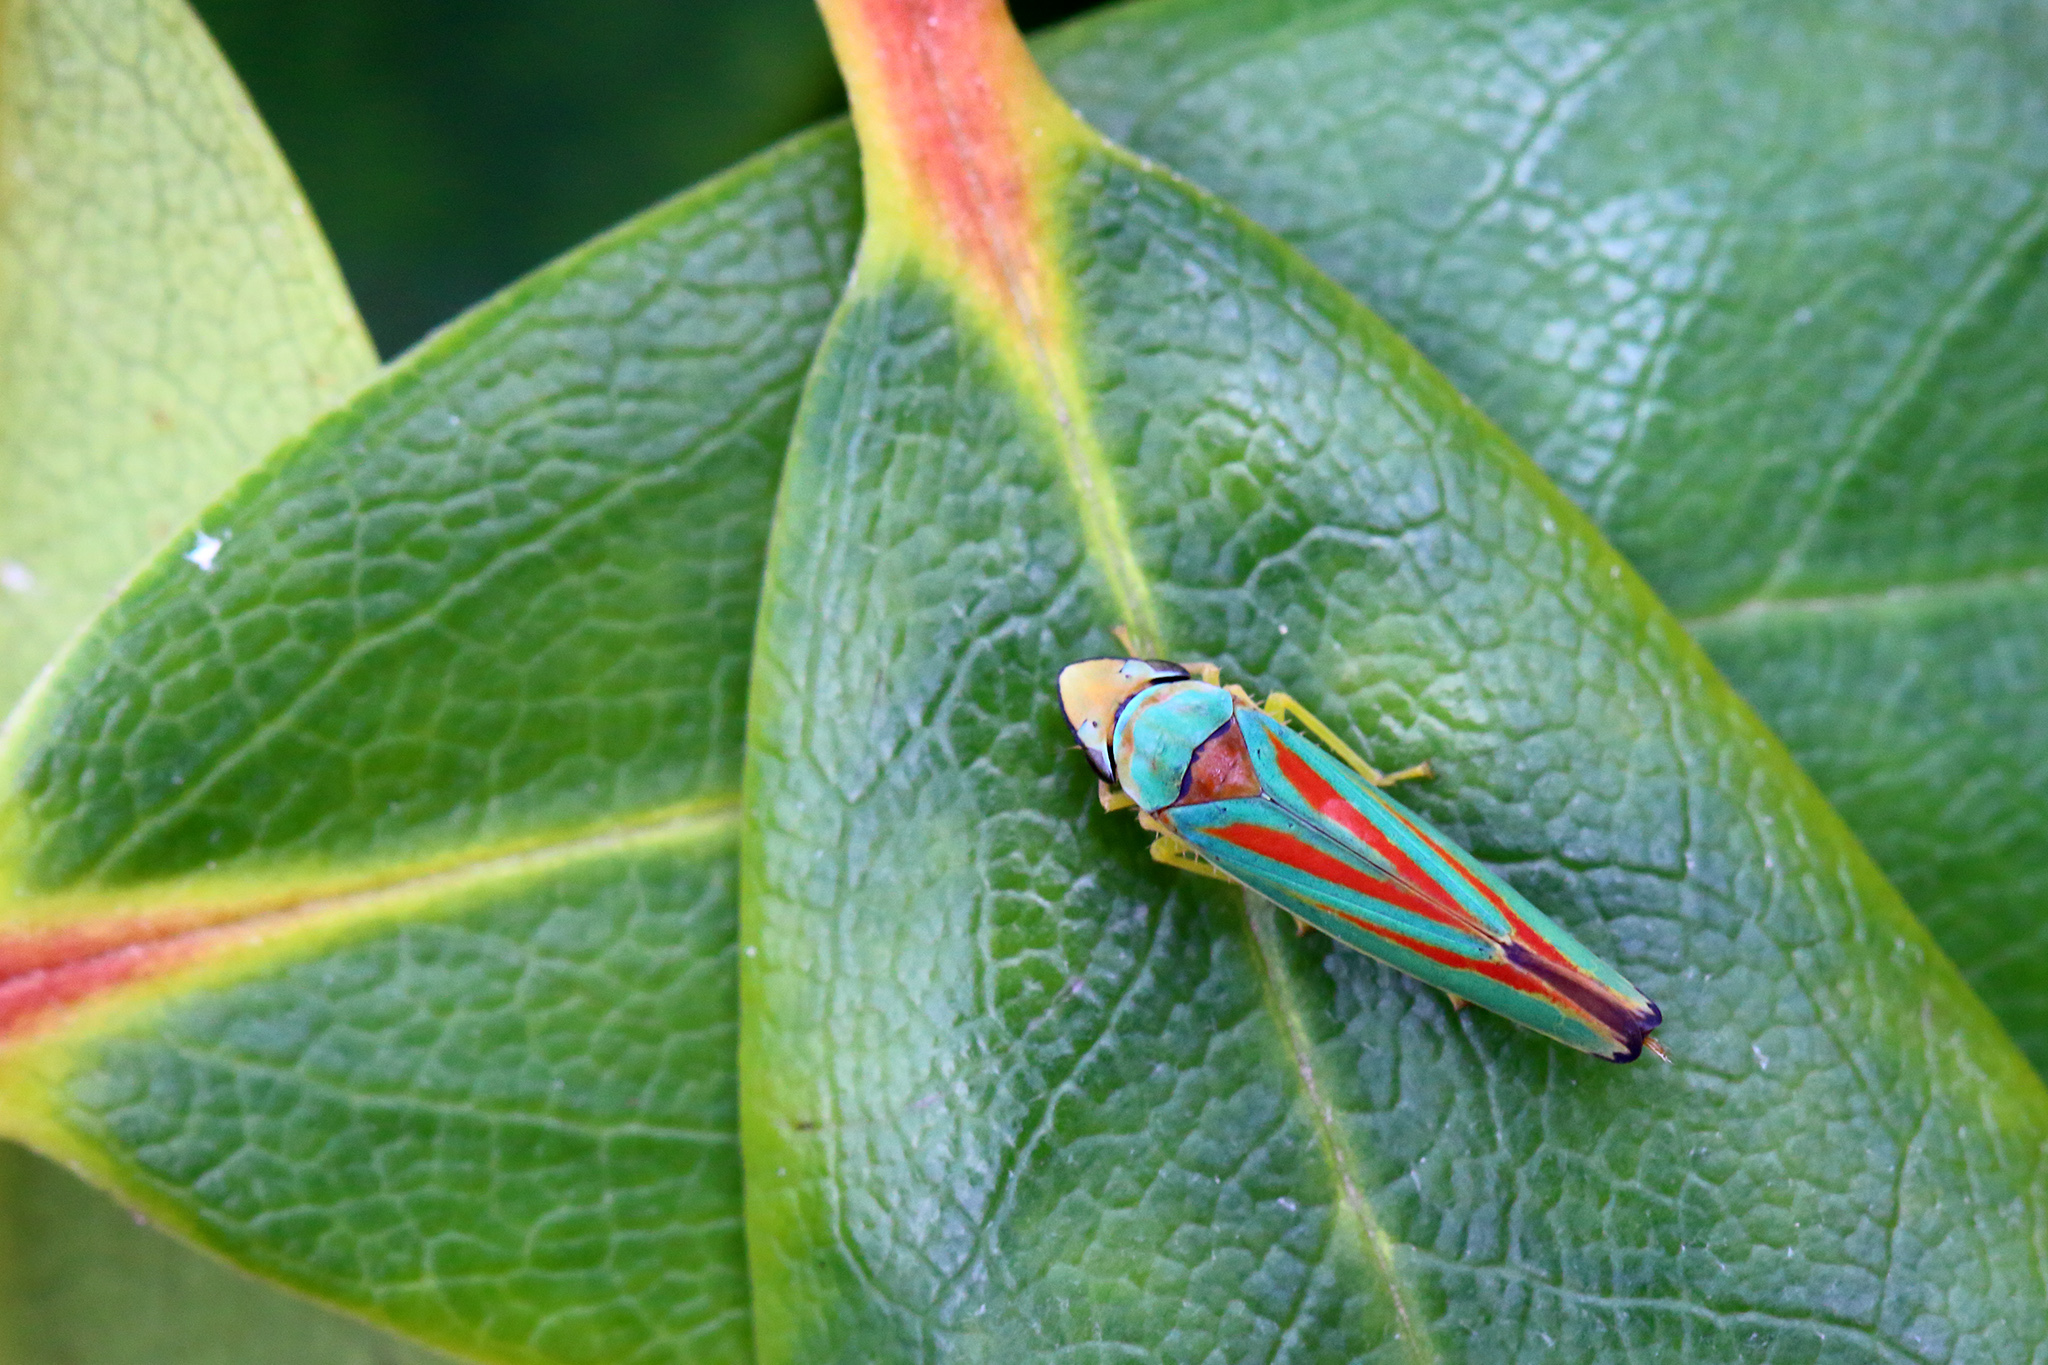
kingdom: Animalia
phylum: Arthropoda
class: Insecta
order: Hemiptera
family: Cicadellidae
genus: Graphocephala
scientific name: Graphocephala fennahi
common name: Rhododendron leafhopper
